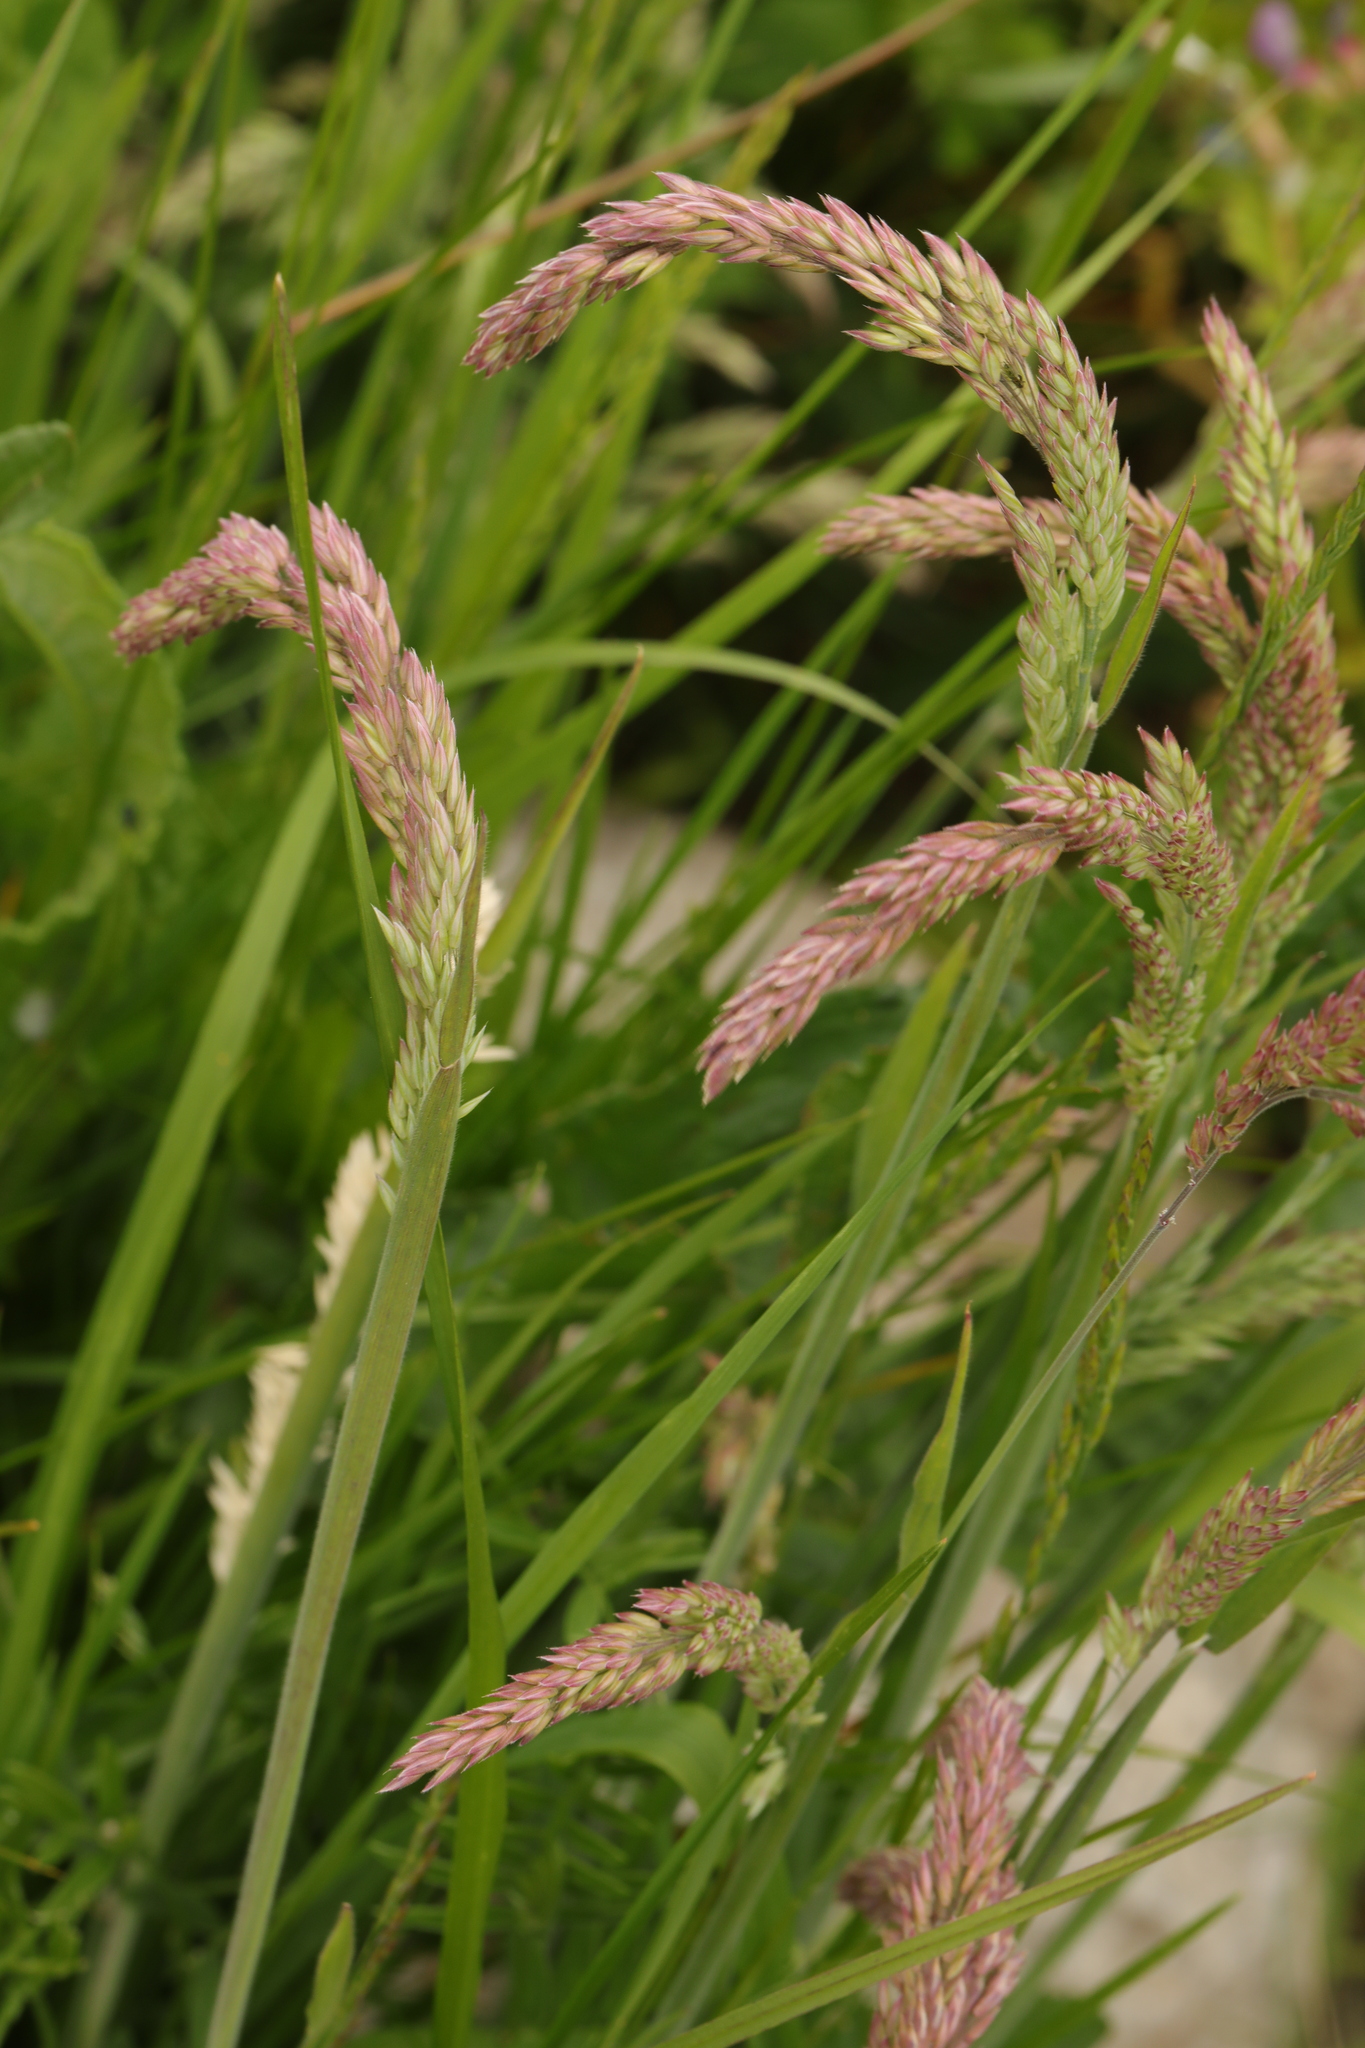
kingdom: Plantae
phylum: Tracheophyta
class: Liliopsida
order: Poales
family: Poaceae
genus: Holcus
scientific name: Holcus lanatus
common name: Yorkshire-fog
